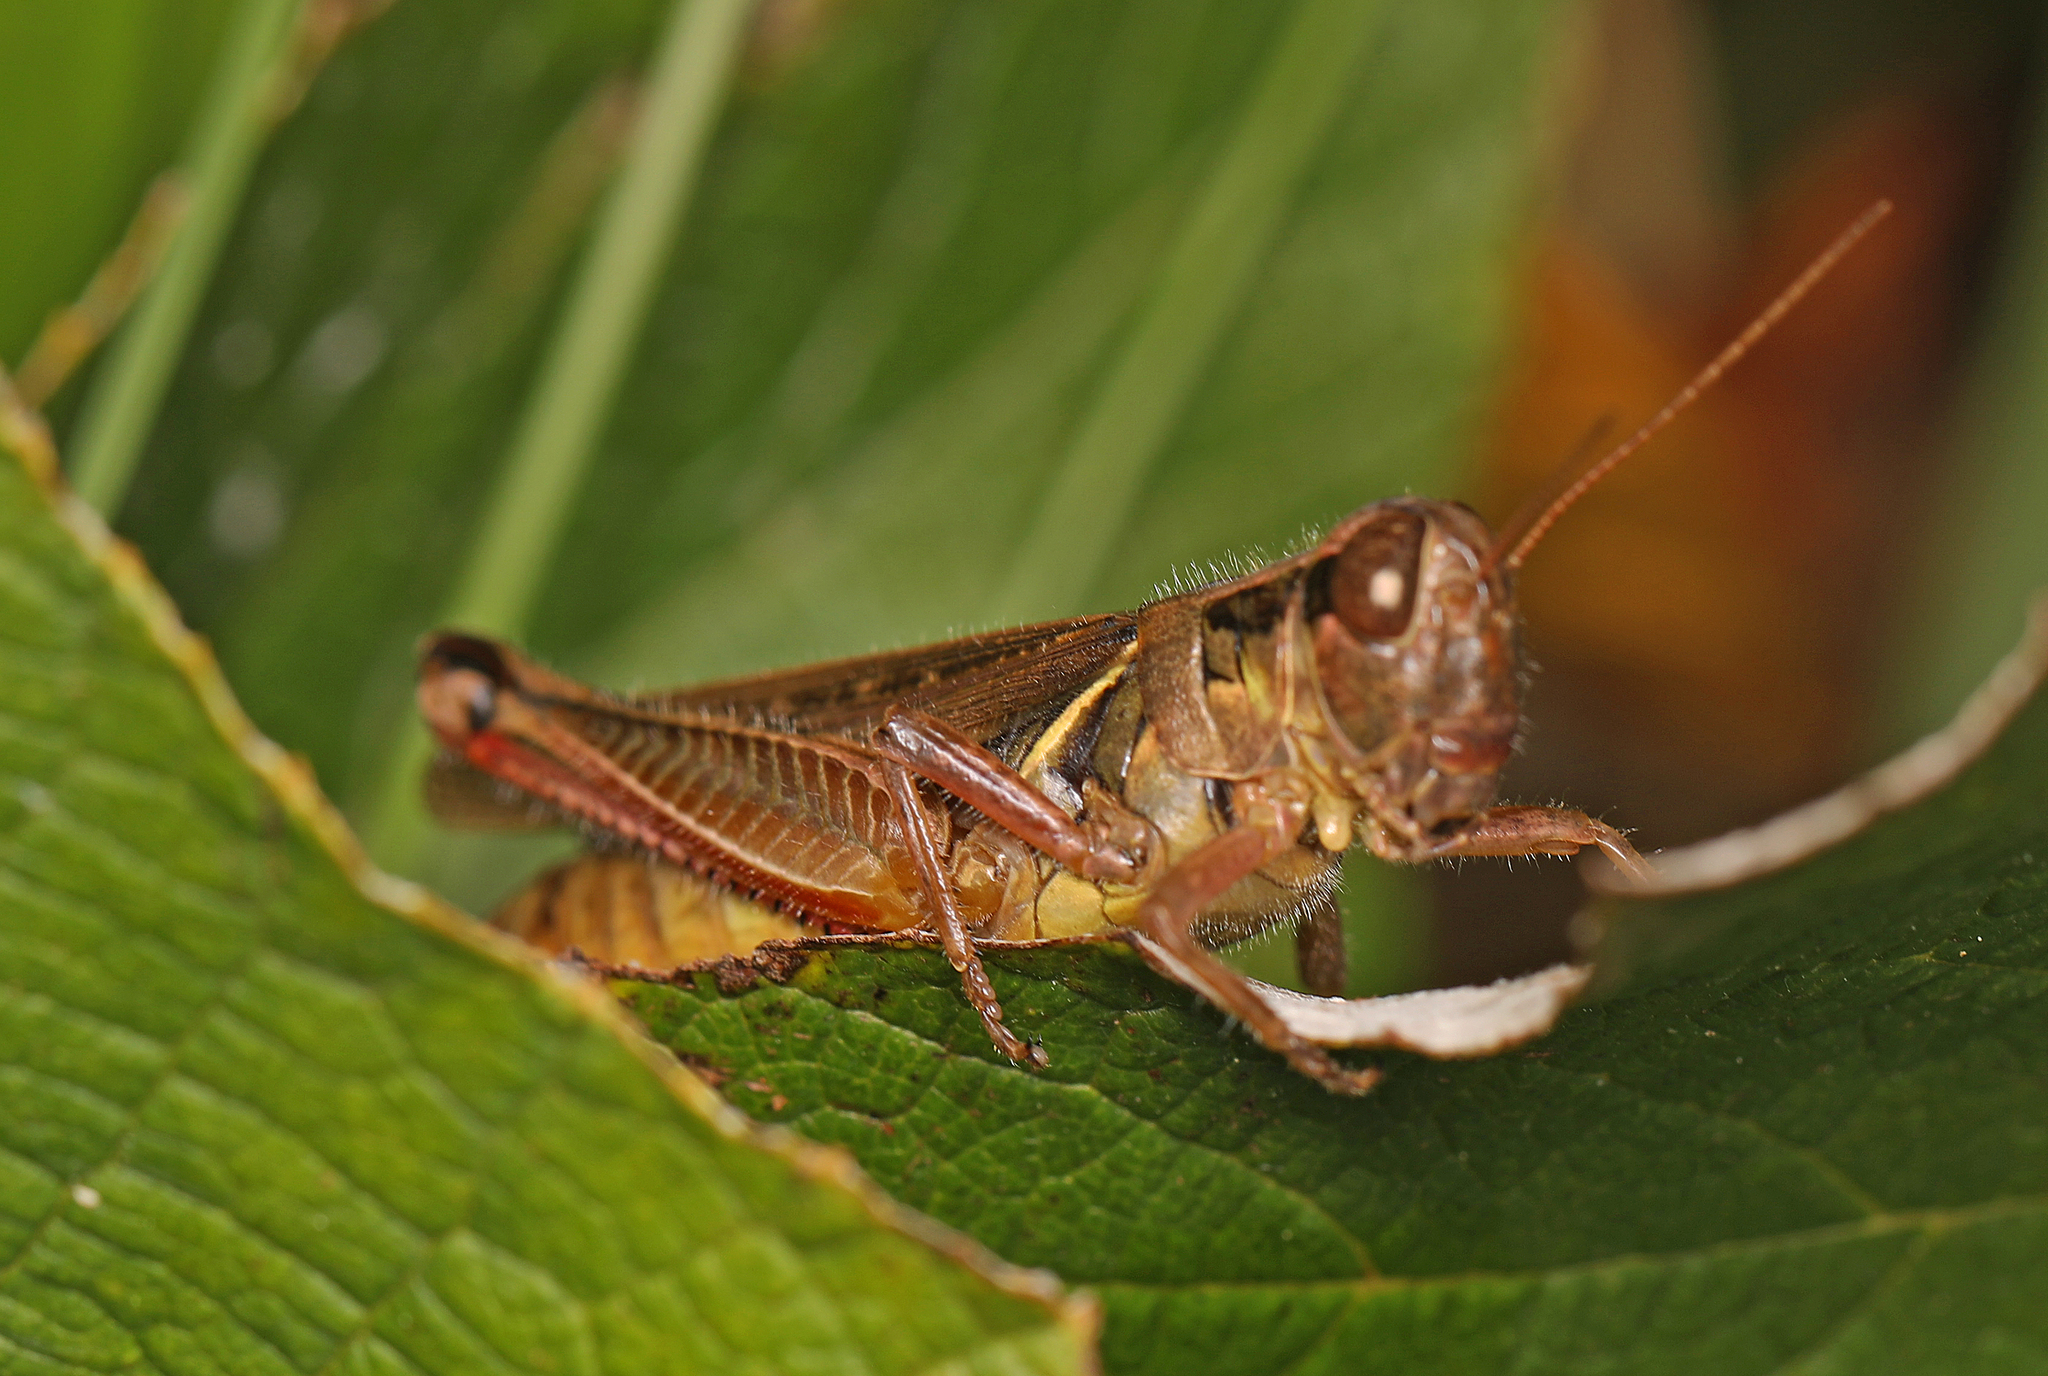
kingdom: Animalia
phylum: Arthropoda
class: Insecta
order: Orthoptera
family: Acrididae
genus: Melanoplus
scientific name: Melanoplus femurrubrum
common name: Red-legged grasshopper
